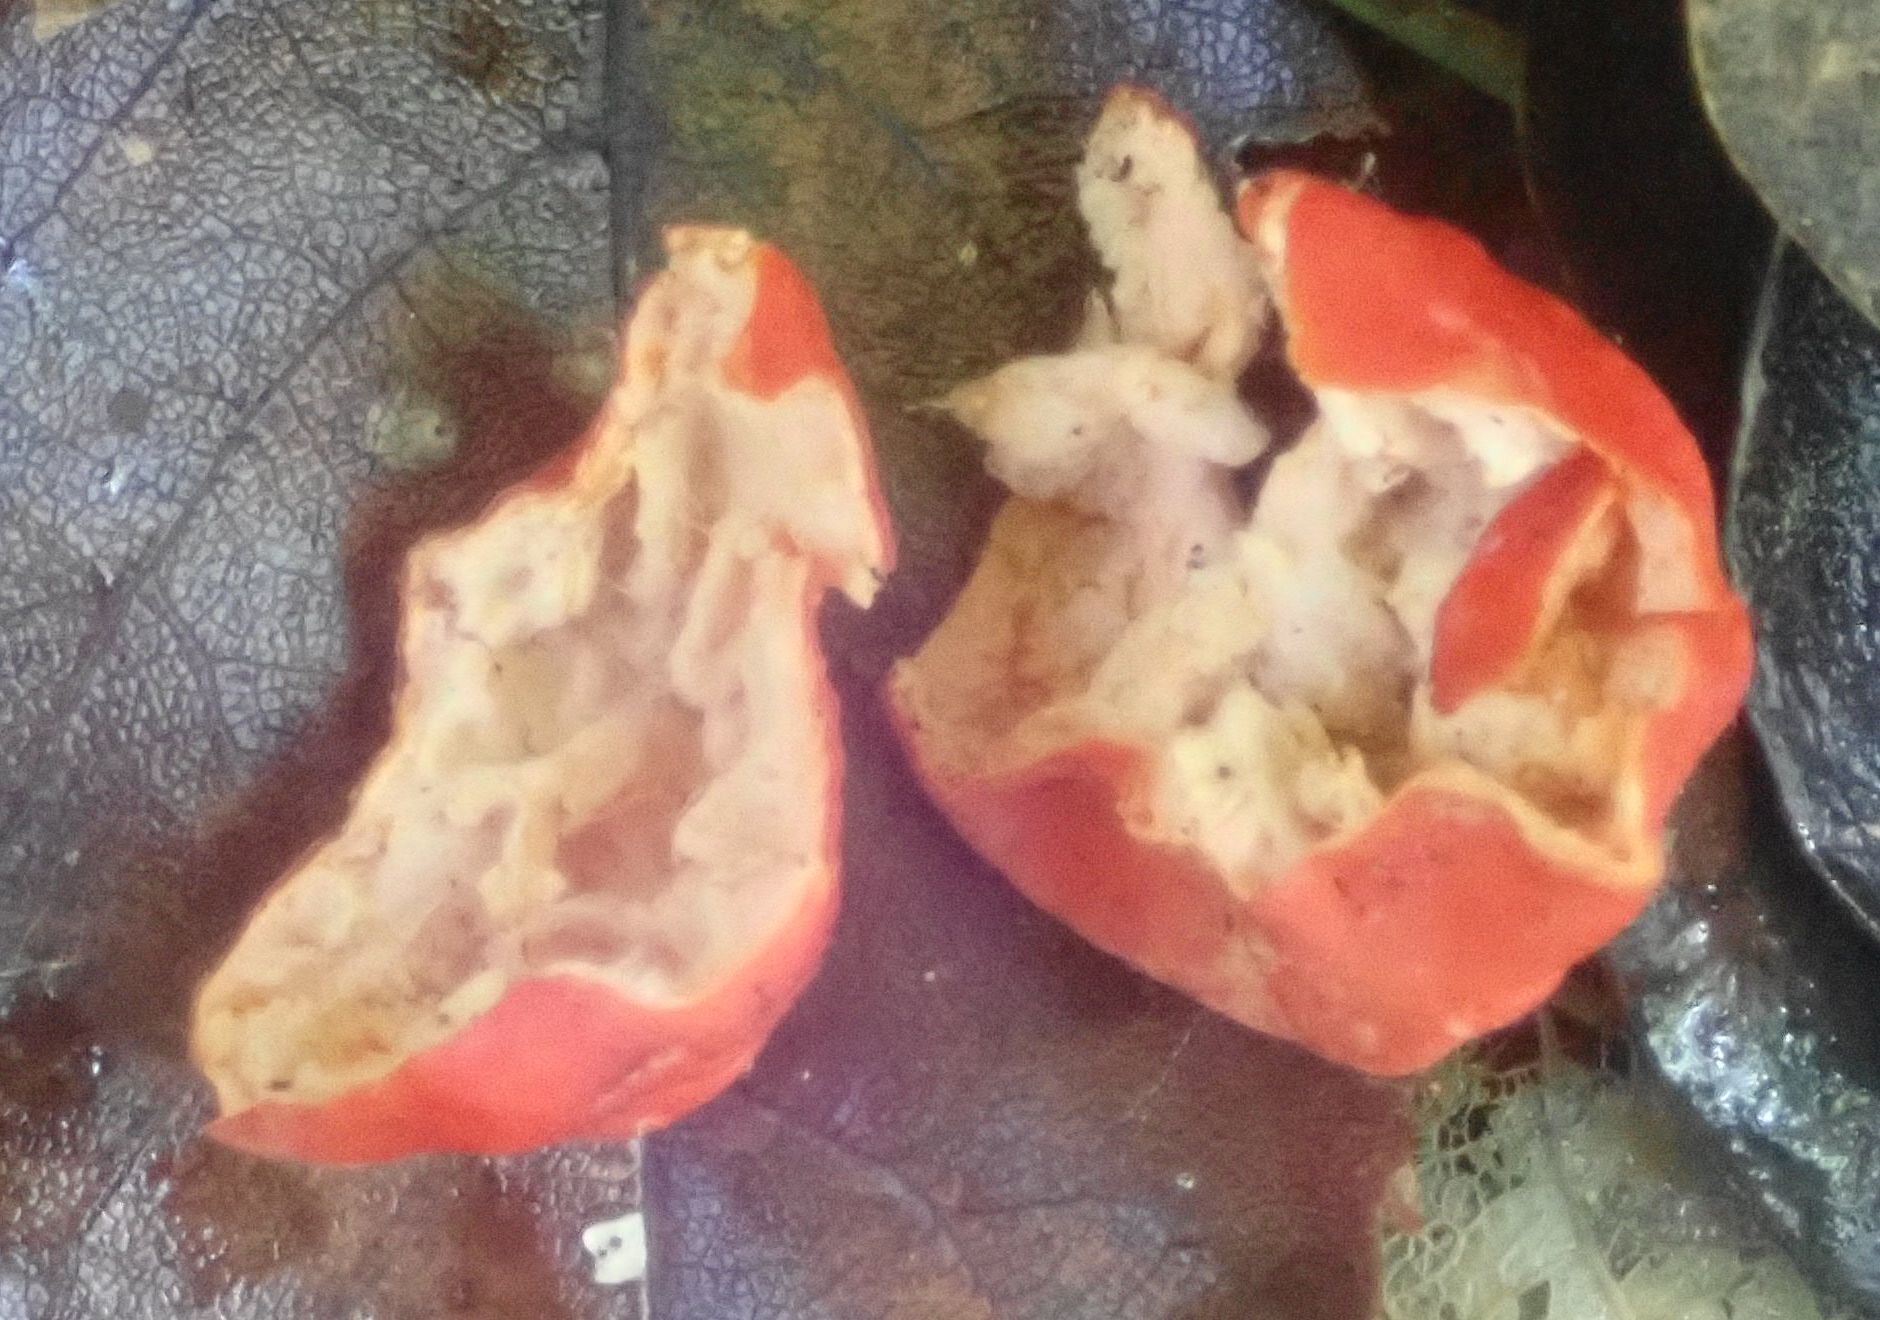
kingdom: Fungi
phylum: Ascomycota
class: Pezizomycetes
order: Pezizales
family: Pyronemataceae
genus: Paurocotylis
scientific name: Paurocotylis pila
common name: Scarlet berry truffle
